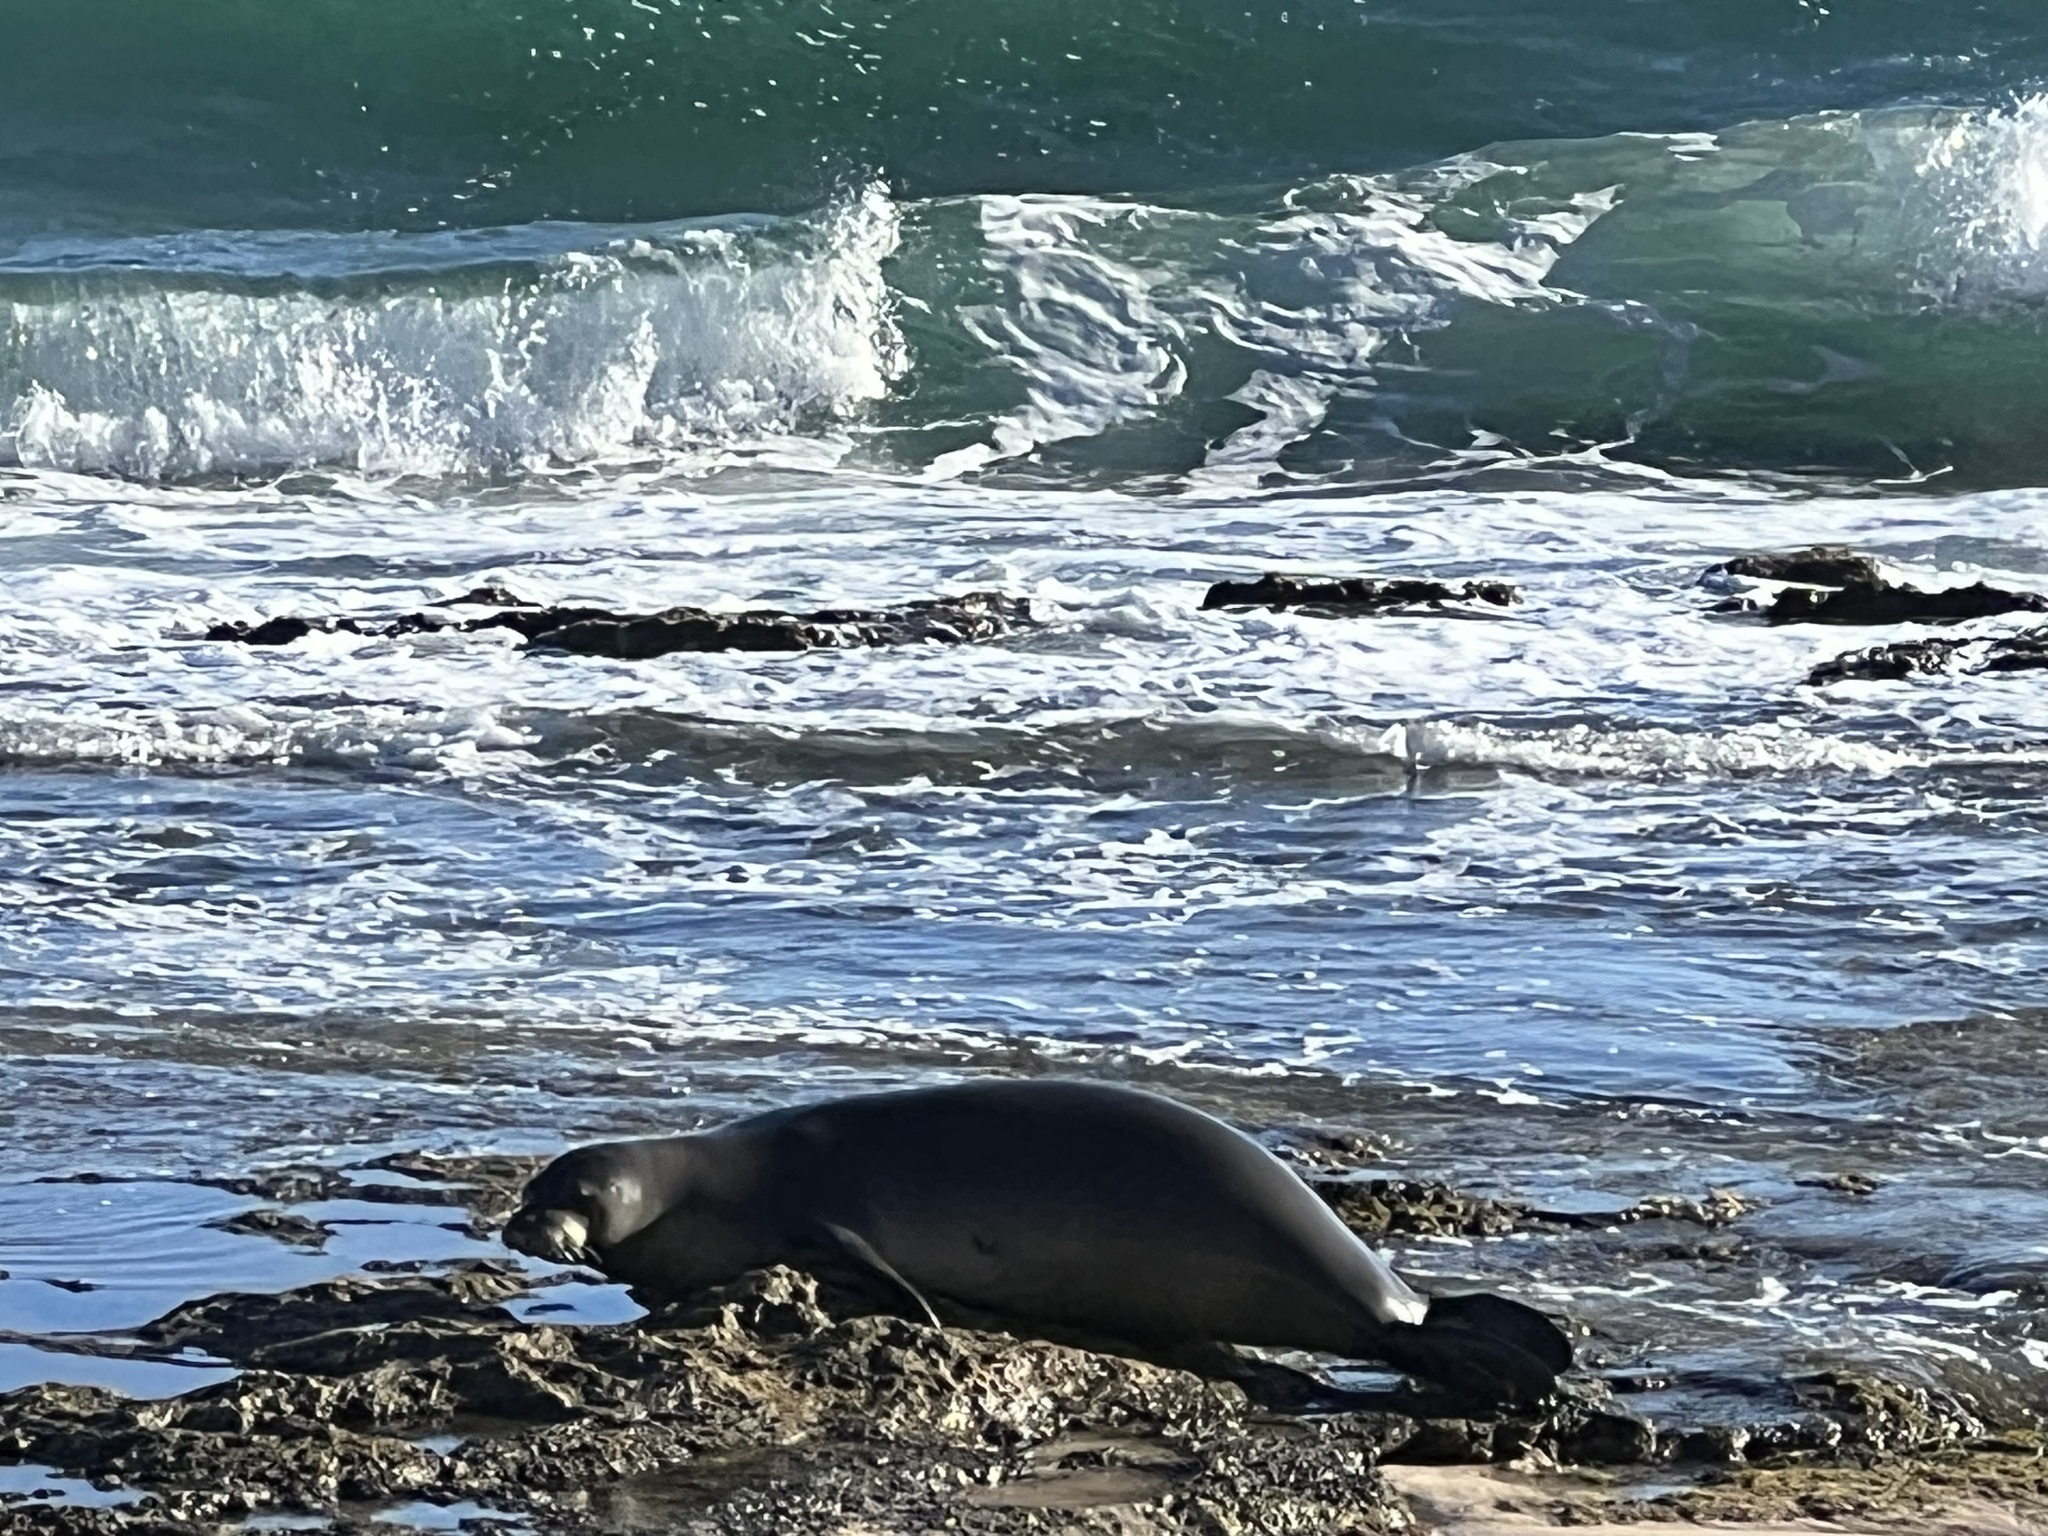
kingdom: Animalia
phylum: Chordata
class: Mammalia
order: Carnivora
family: Phocidae
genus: Neomonachus
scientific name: Neomonachus schauinslandi
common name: Hawaiian monk seal
